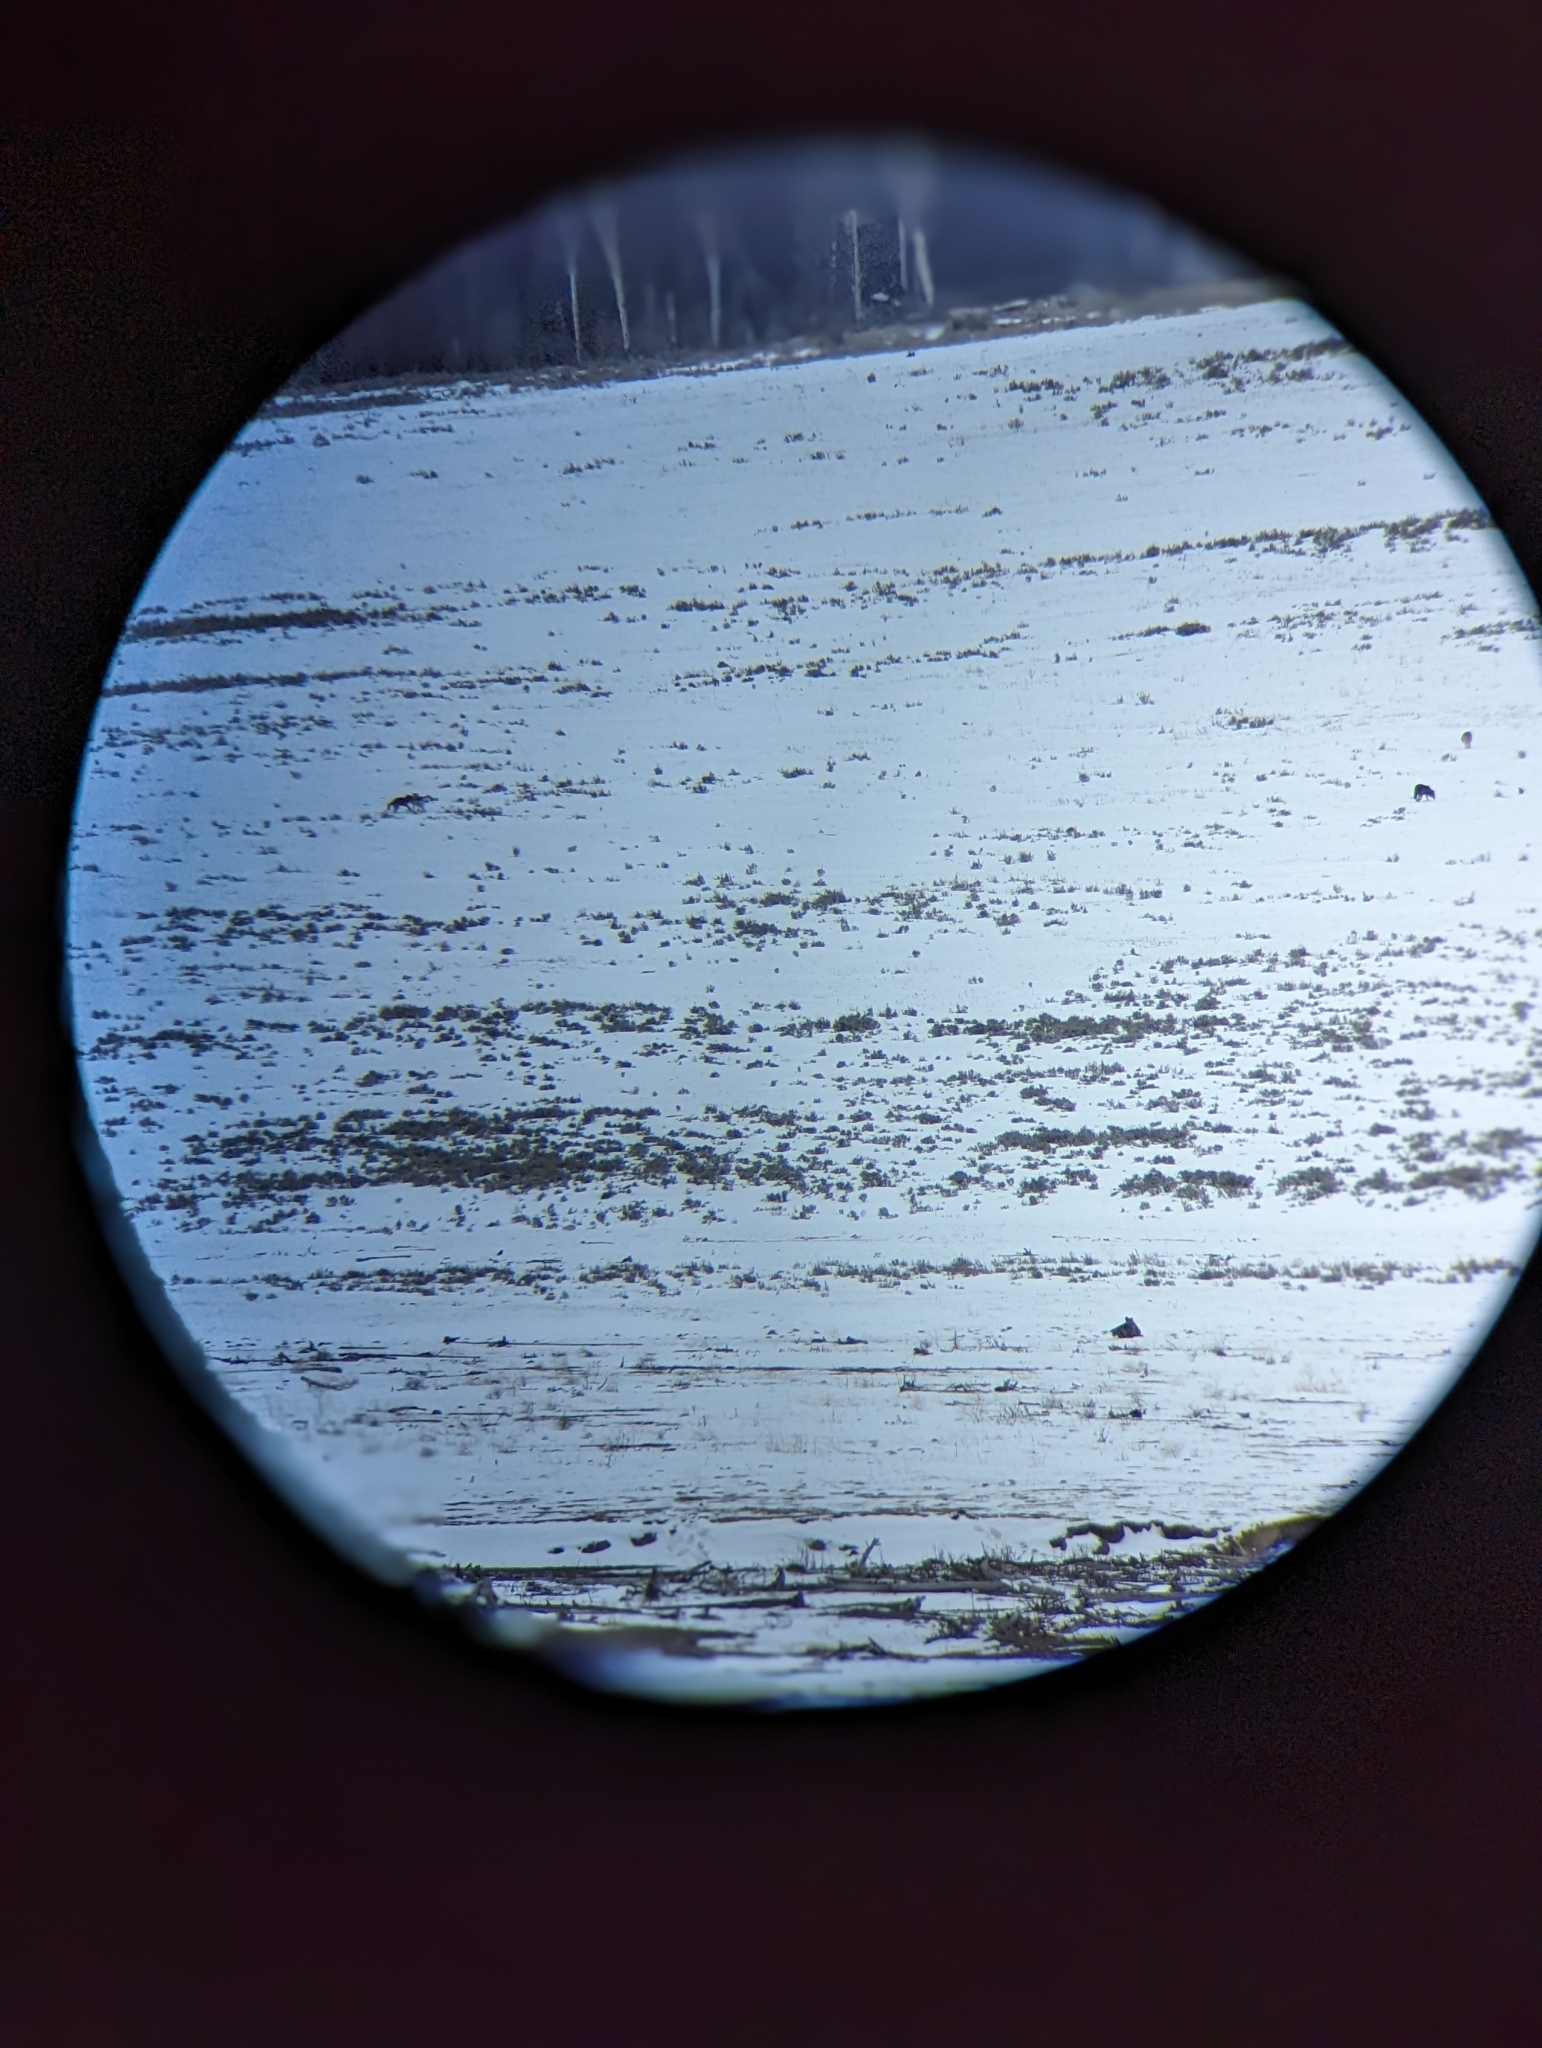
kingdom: Animalia
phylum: Chordata
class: Mammalia
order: Carnivora
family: Canidae
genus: Canis
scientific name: Canis lupus
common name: Gray wolf
